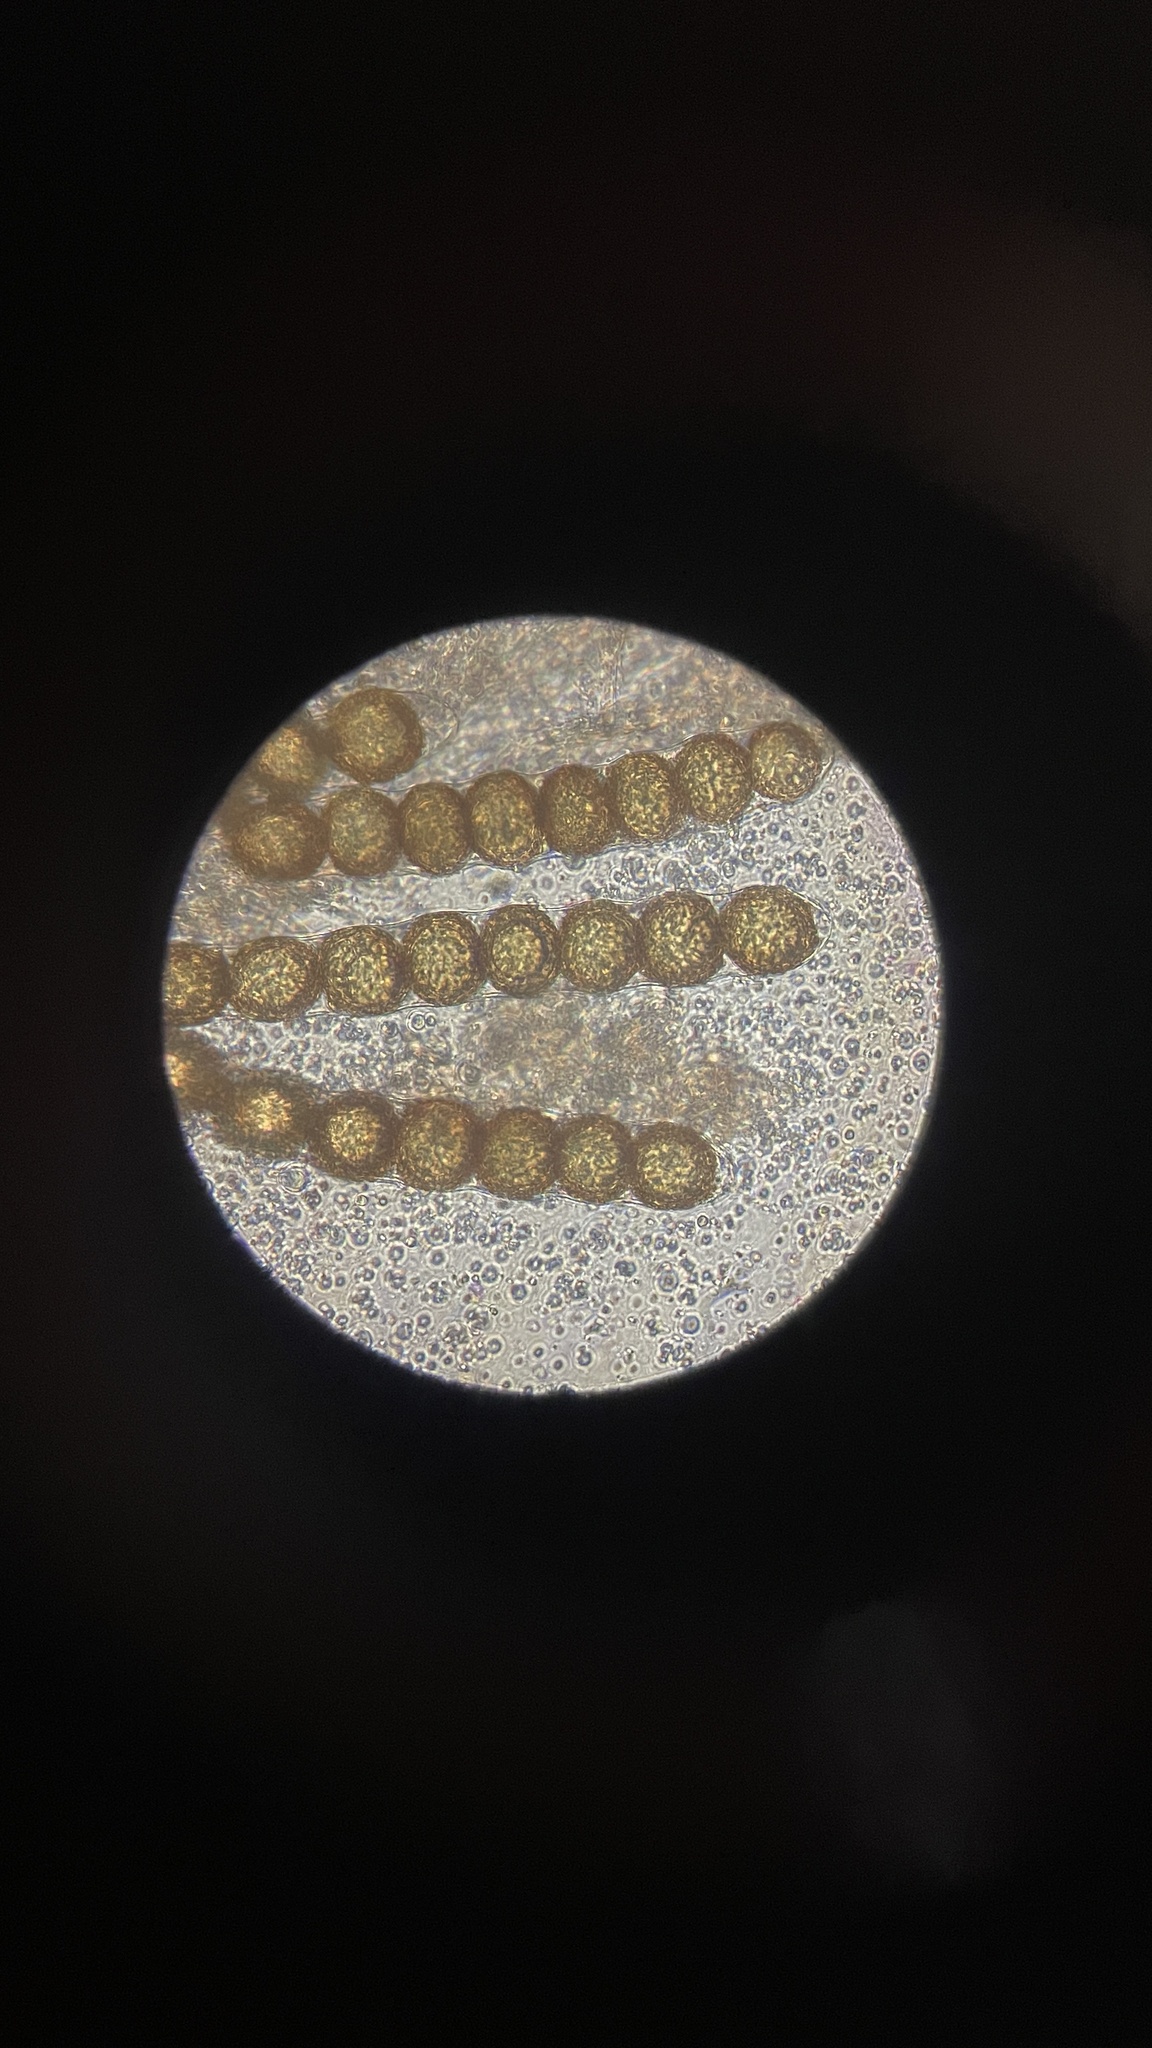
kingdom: Fungi
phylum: Ascomycota
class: Pezizomycetes
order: Pezizales
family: Discinaceae
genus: Hydnotrya
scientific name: Hydnotrya cerebriformis
